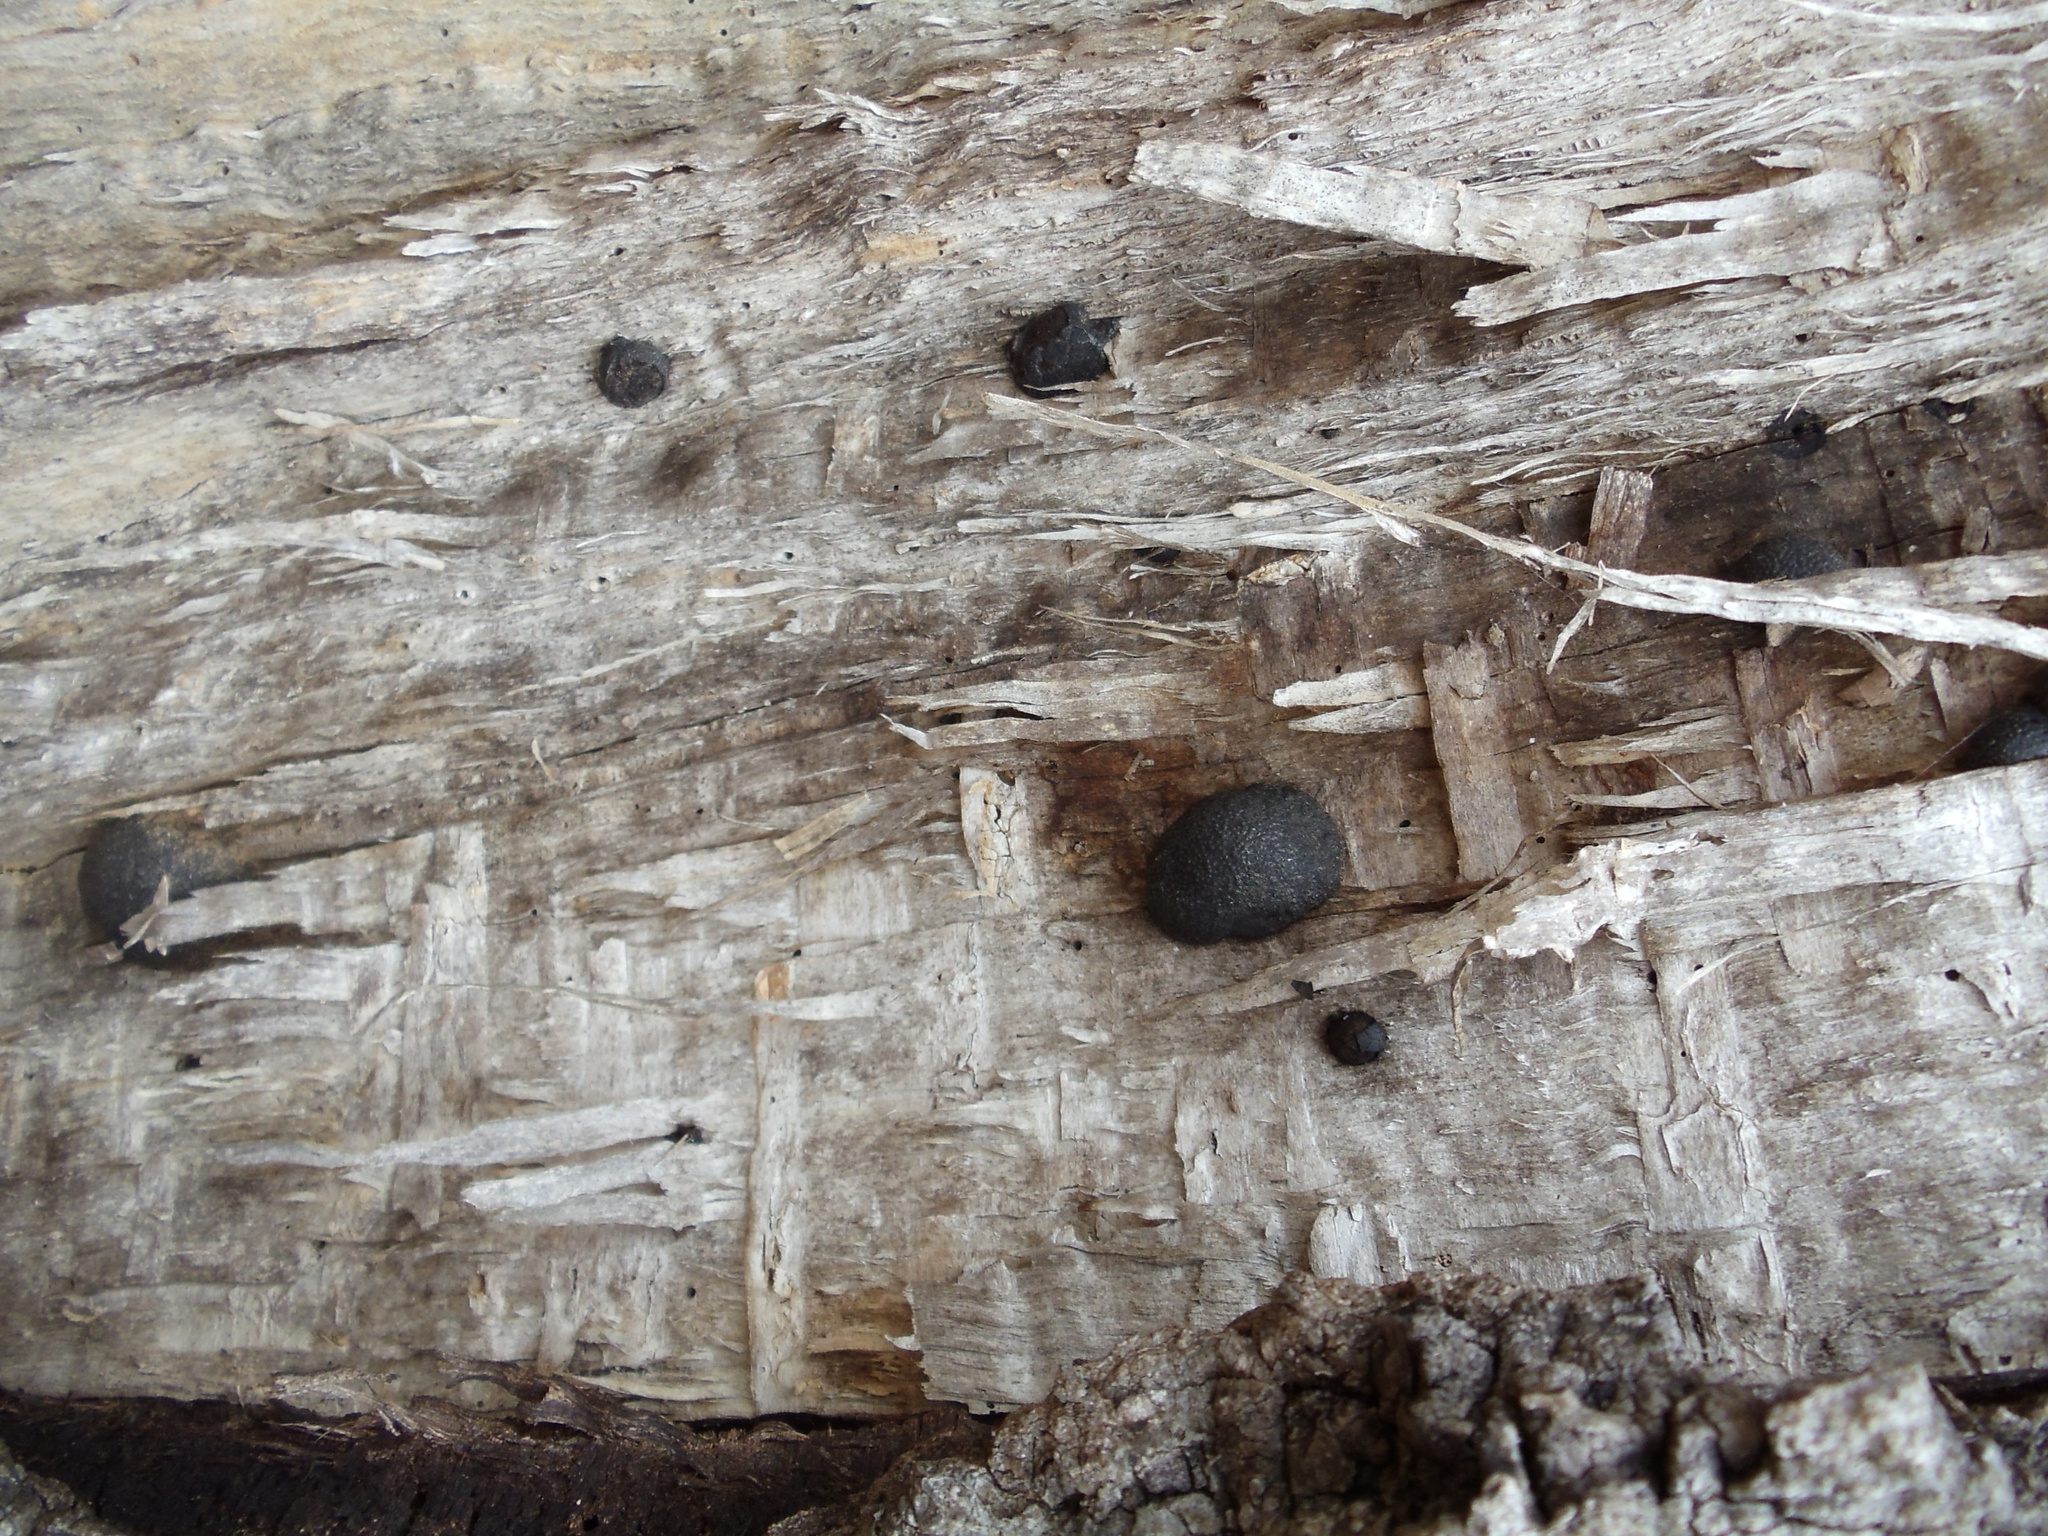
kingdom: Fungi
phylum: Ascomycota
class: Sordariomycetes
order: Xylariales
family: Hypoxylaceae
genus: Annulohypoxylon
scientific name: Annulohypoxylon thouarsianum
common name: Cramp balls
